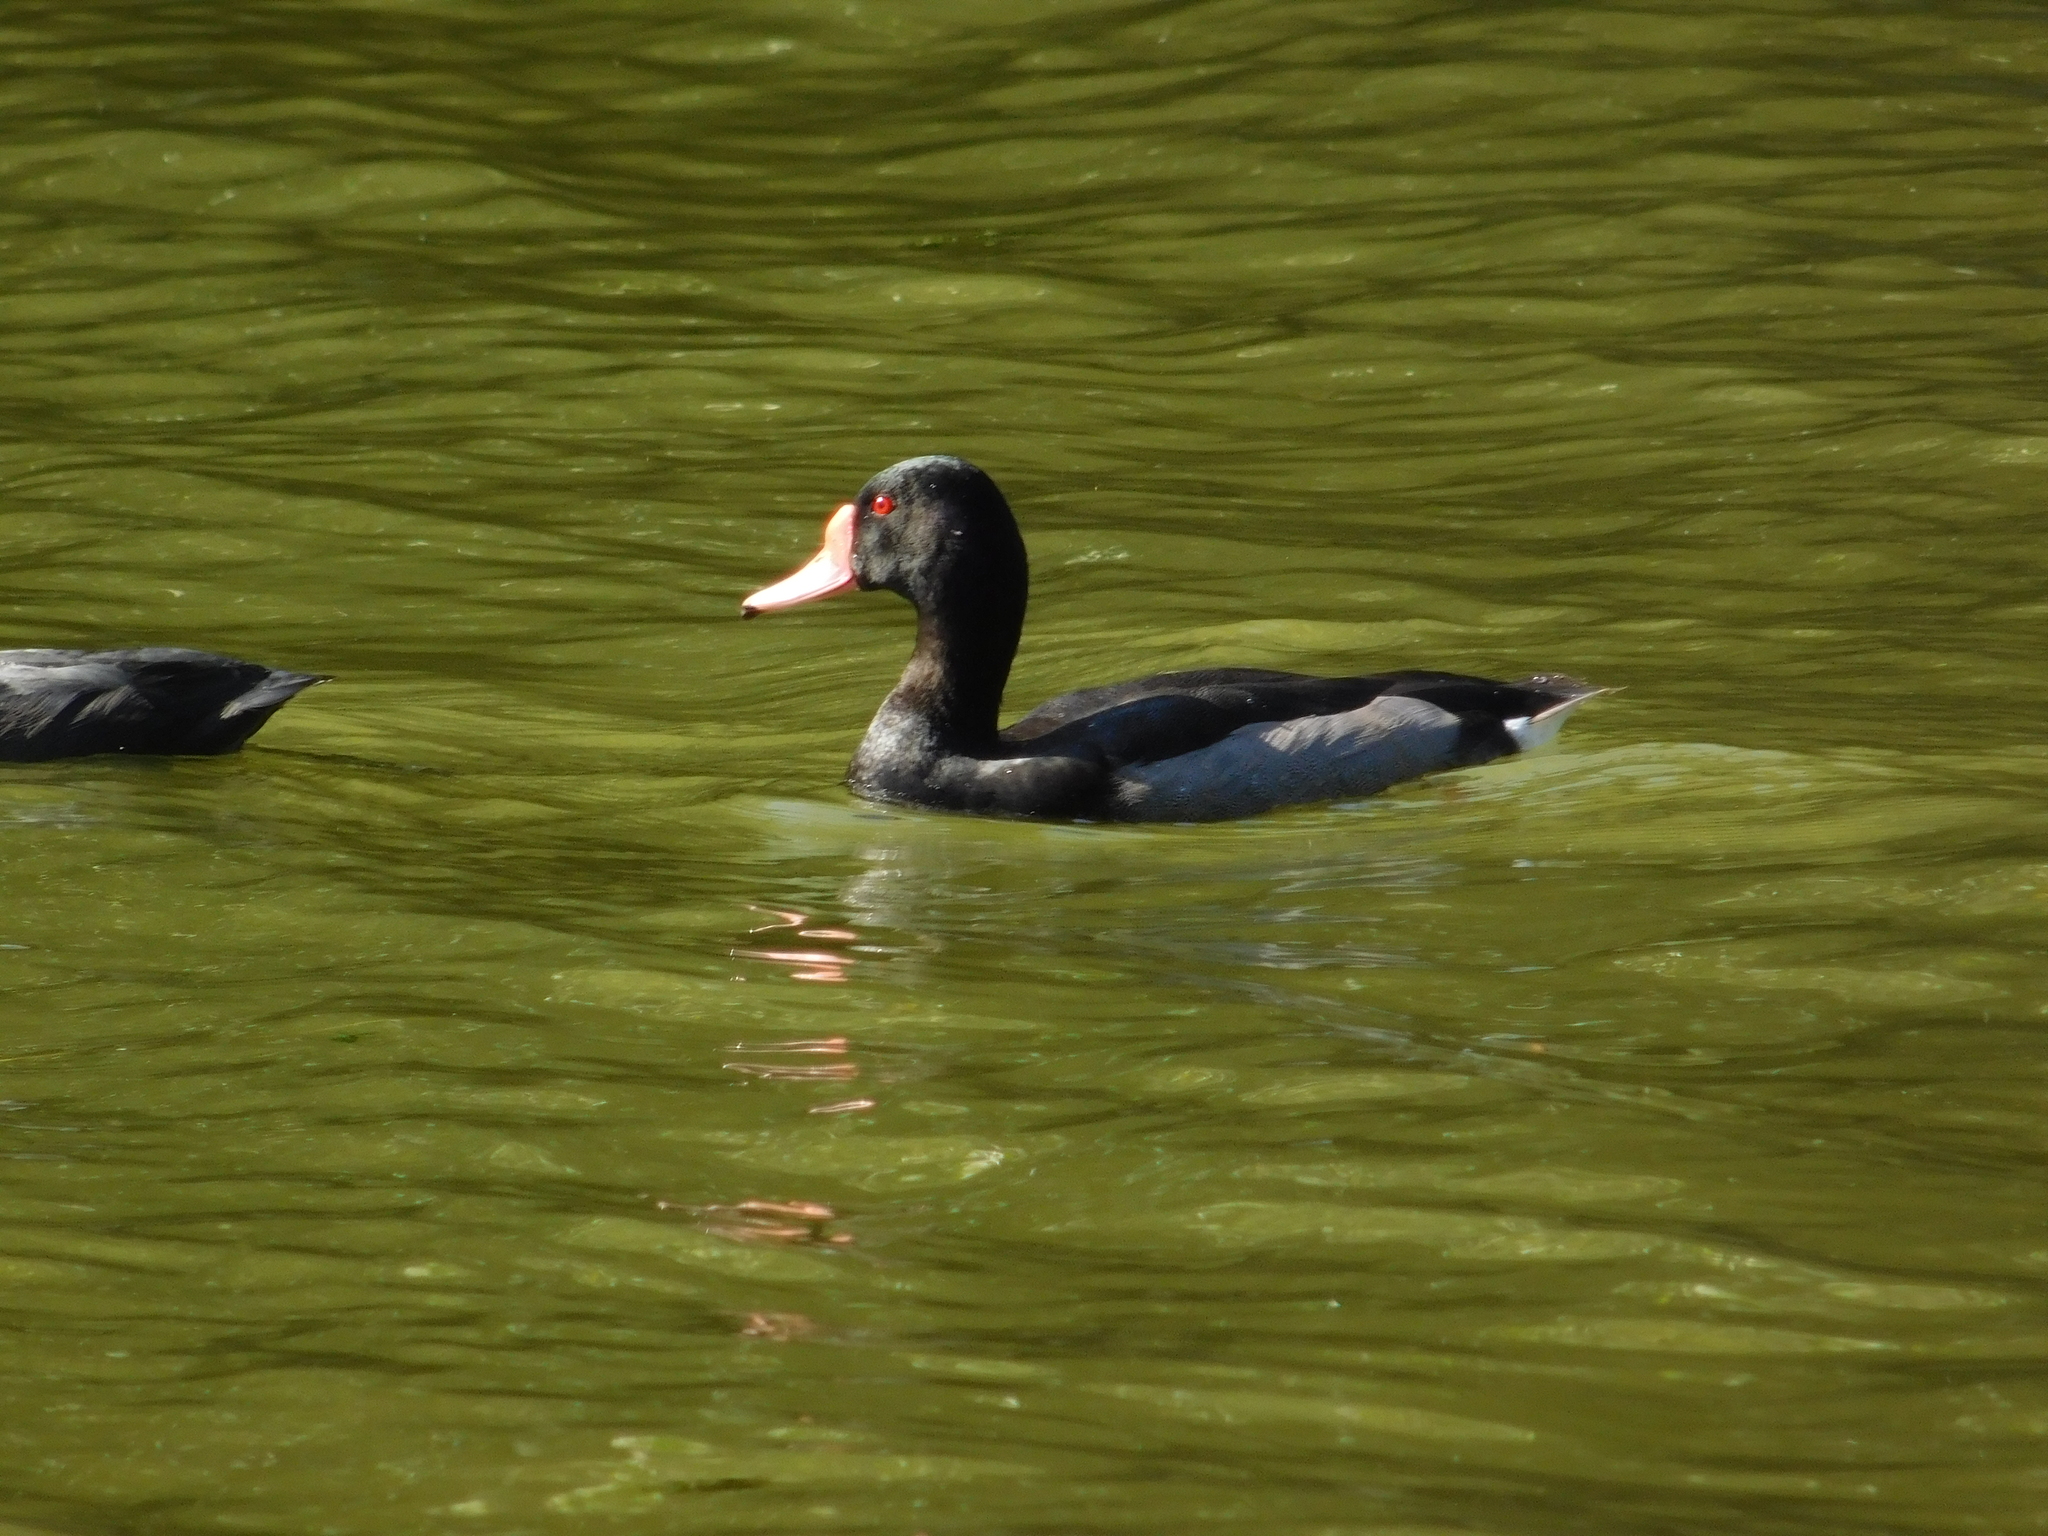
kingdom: Animalia
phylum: Chordata
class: Aves
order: Anseriformes
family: Anatidae
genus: Netta
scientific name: Netta peposaca
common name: Rosy-billed pochard
